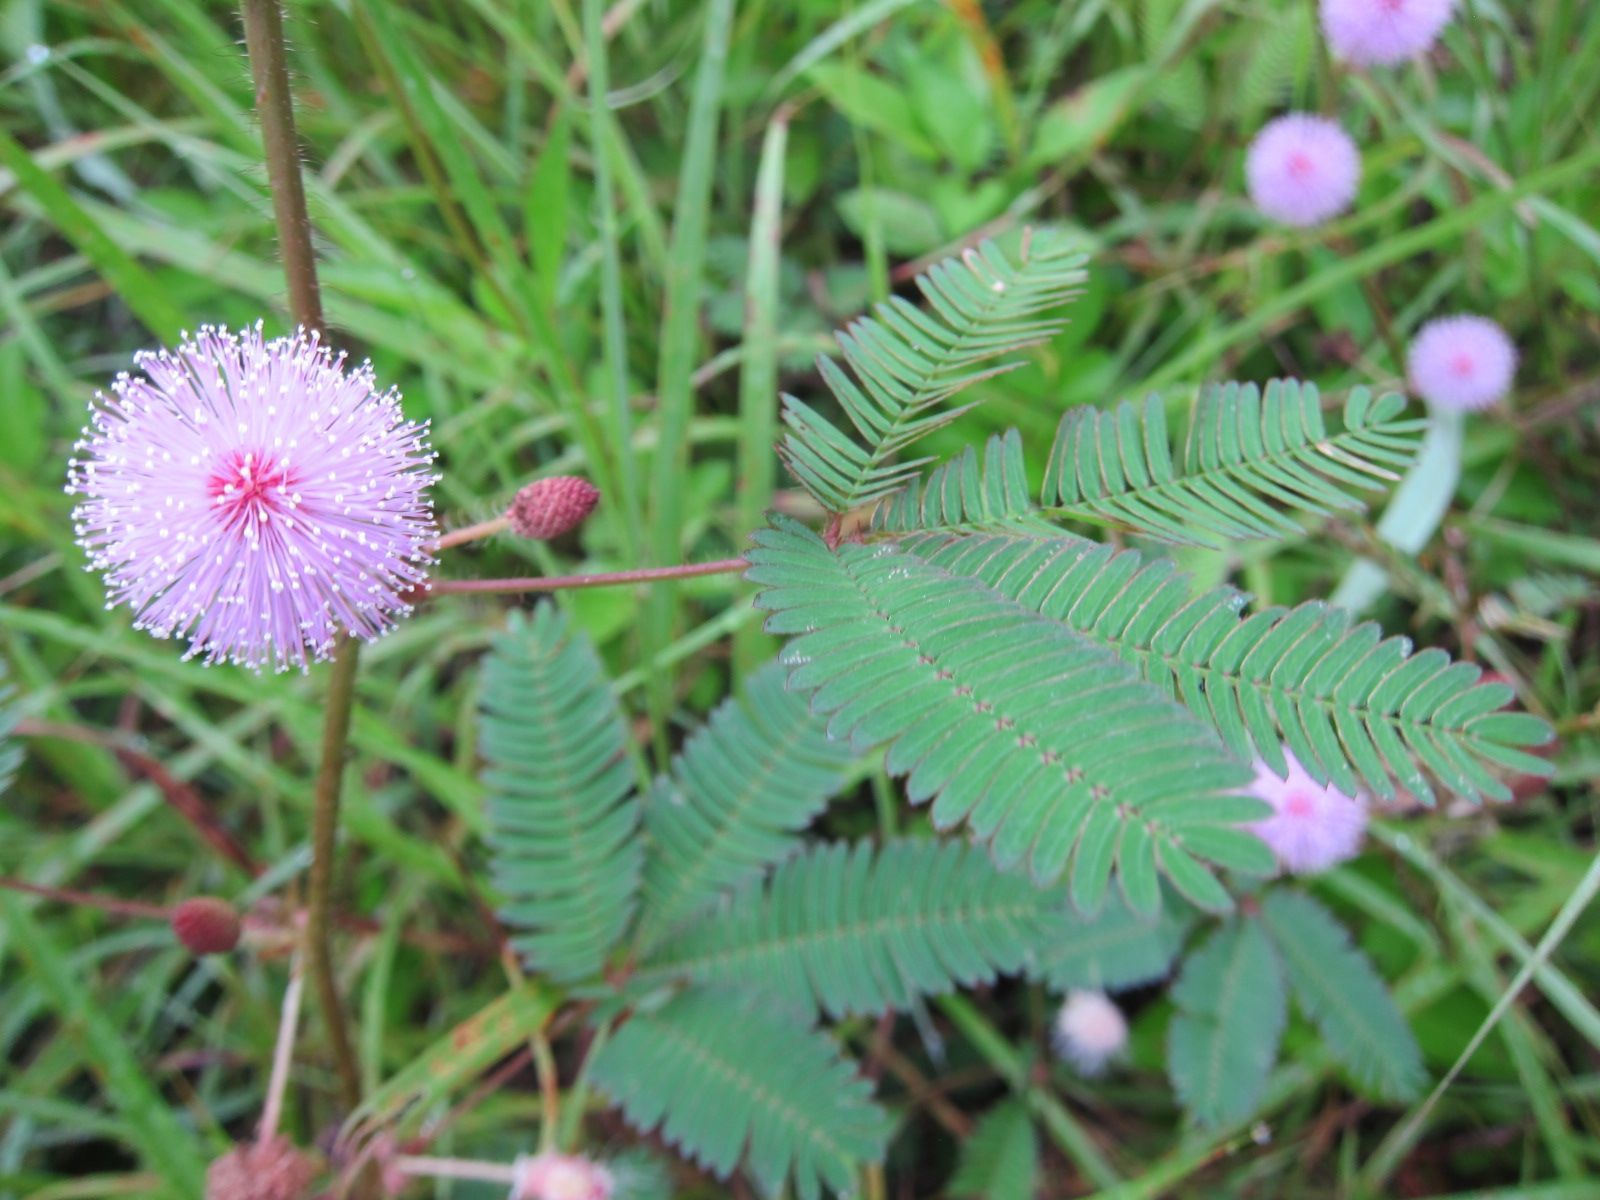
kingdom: Plantae
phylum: Tracheophyta
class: Magnoliopsida
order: Fabales
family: Fabaceae
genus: Mimosa
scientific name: Mimosa pudica
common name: Sensitive plant
